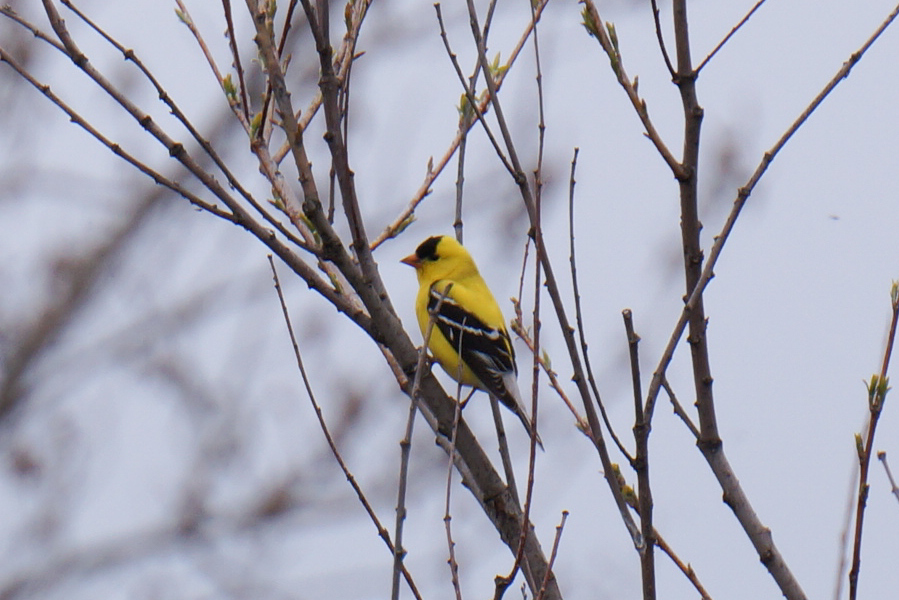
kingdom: Animalia
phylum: Chordata
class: Aves
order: Passeriformes
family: Fringillidae
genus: Spinus
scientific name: Spinus tristis
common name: American goldfinch
